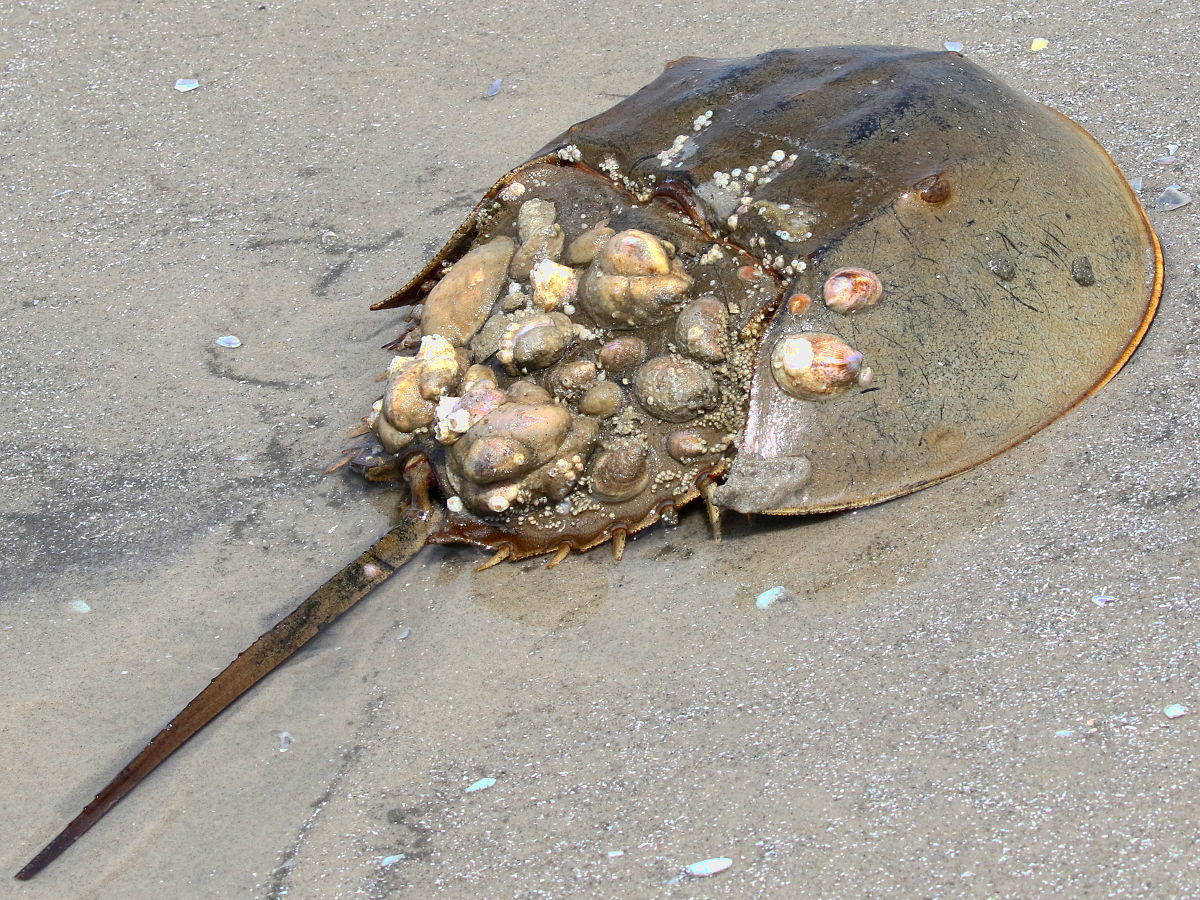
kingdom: Animalia
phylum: Arthropoda
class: Merostomata
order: Xiphosurida
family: Limulidae
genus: Limulus
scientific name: Limulus polyphemus
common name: Horseshoe crab
